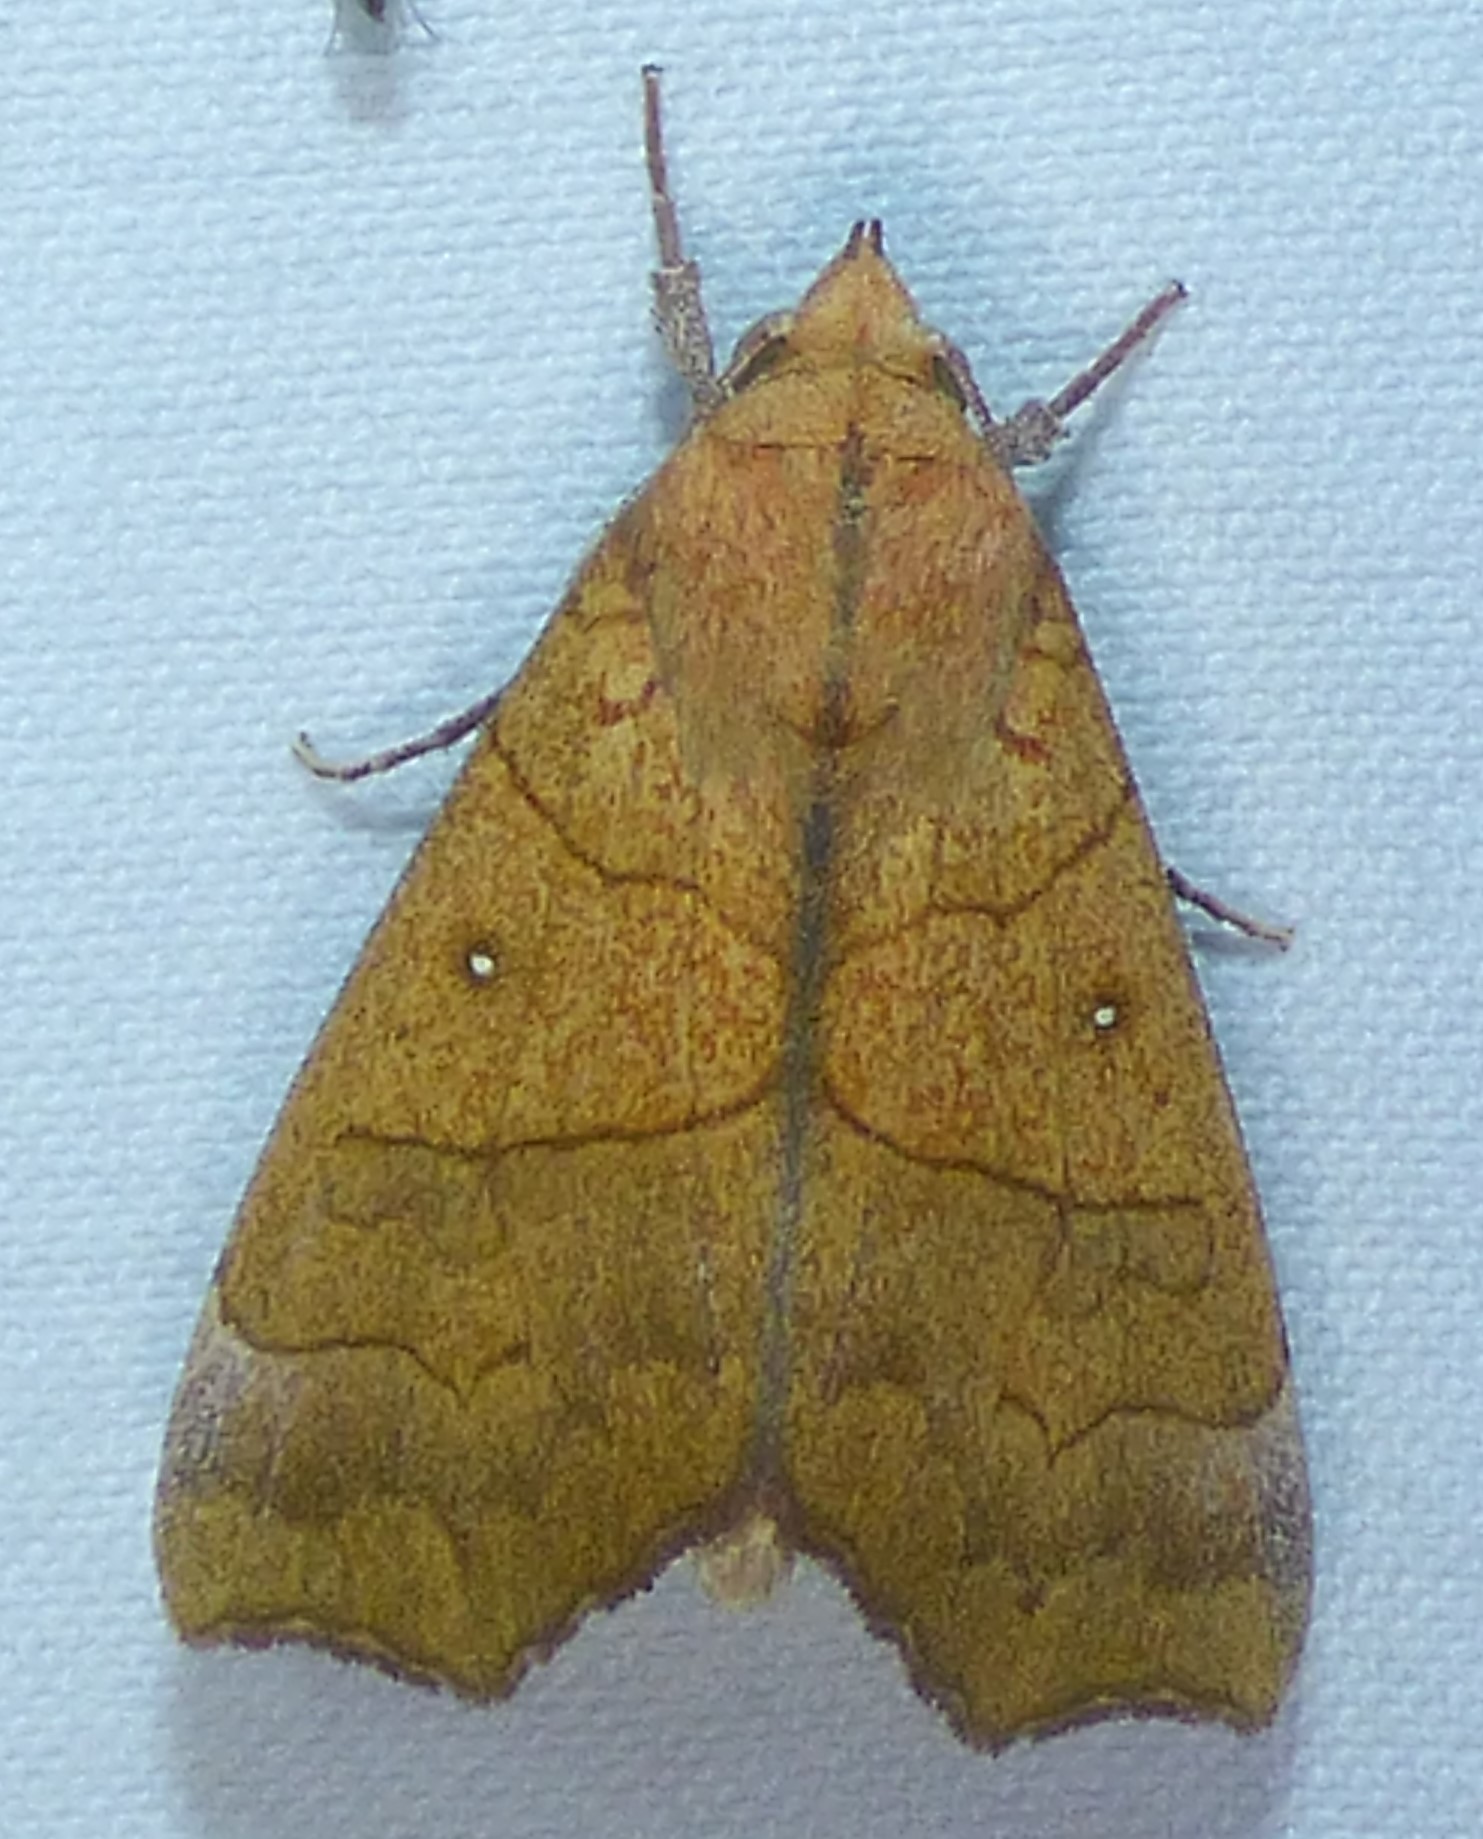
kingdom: Animalia
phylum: Arthropoda
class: Insecta
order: Lepidoptera
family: Erebidae
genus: Anomis
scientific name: Anomis erosa
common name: Yellow scallop moth
